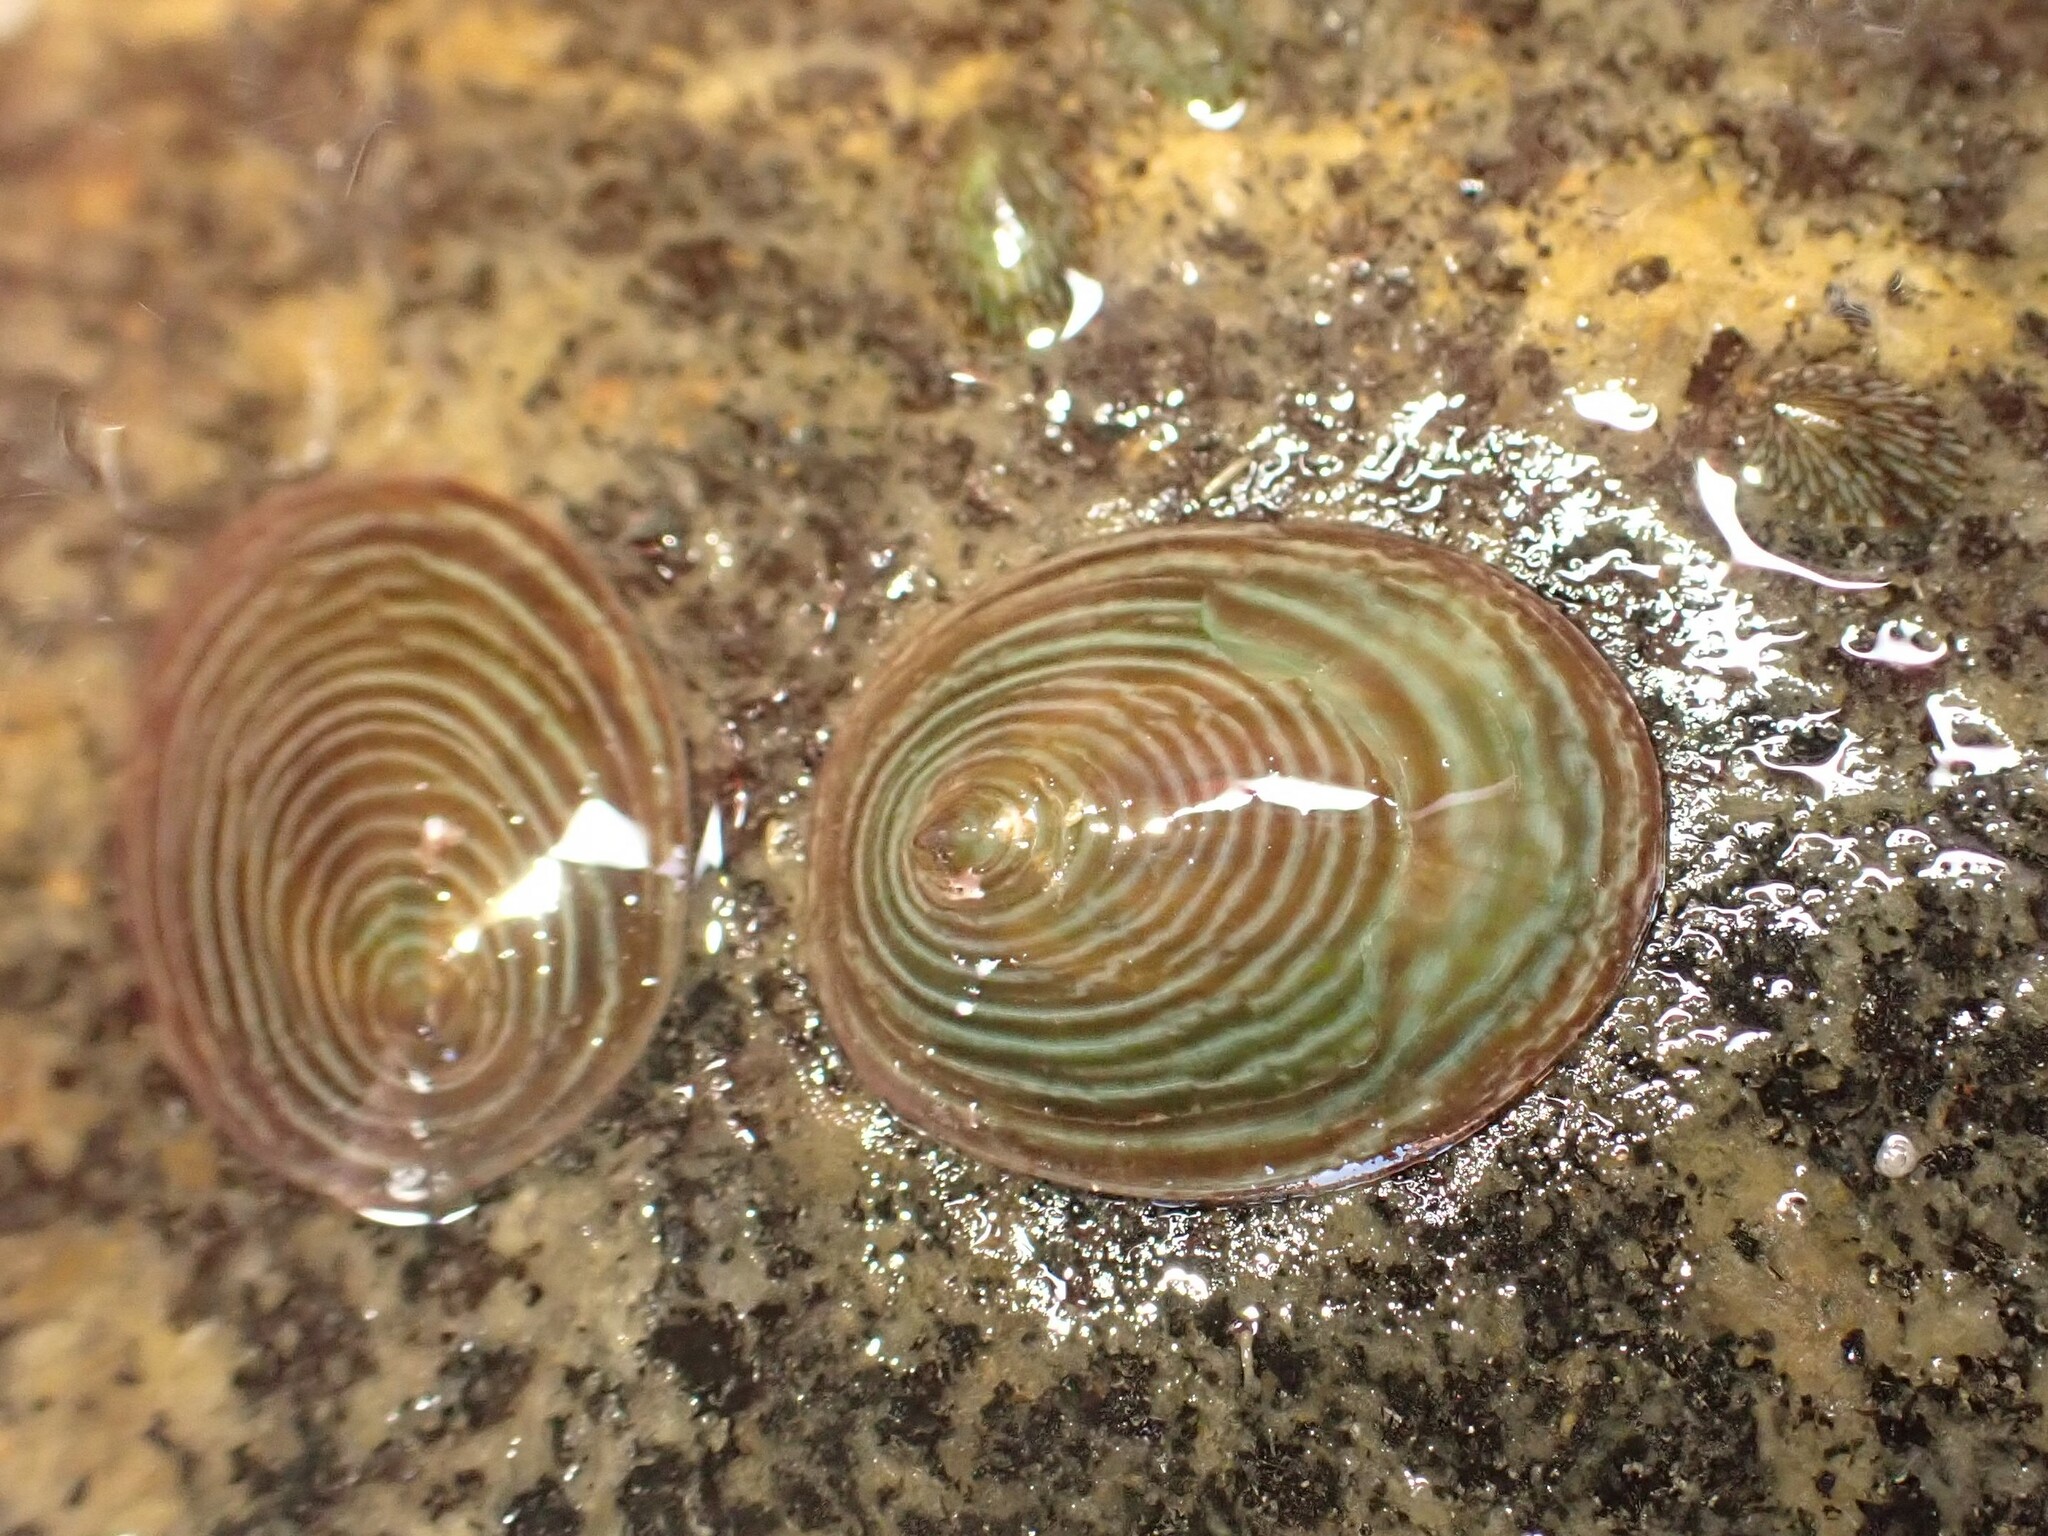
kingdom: Animalia
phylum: Mollusca
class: Gastropoda
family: Lottiidae
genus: Atalacmea
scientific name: Atalacmea fragilis
